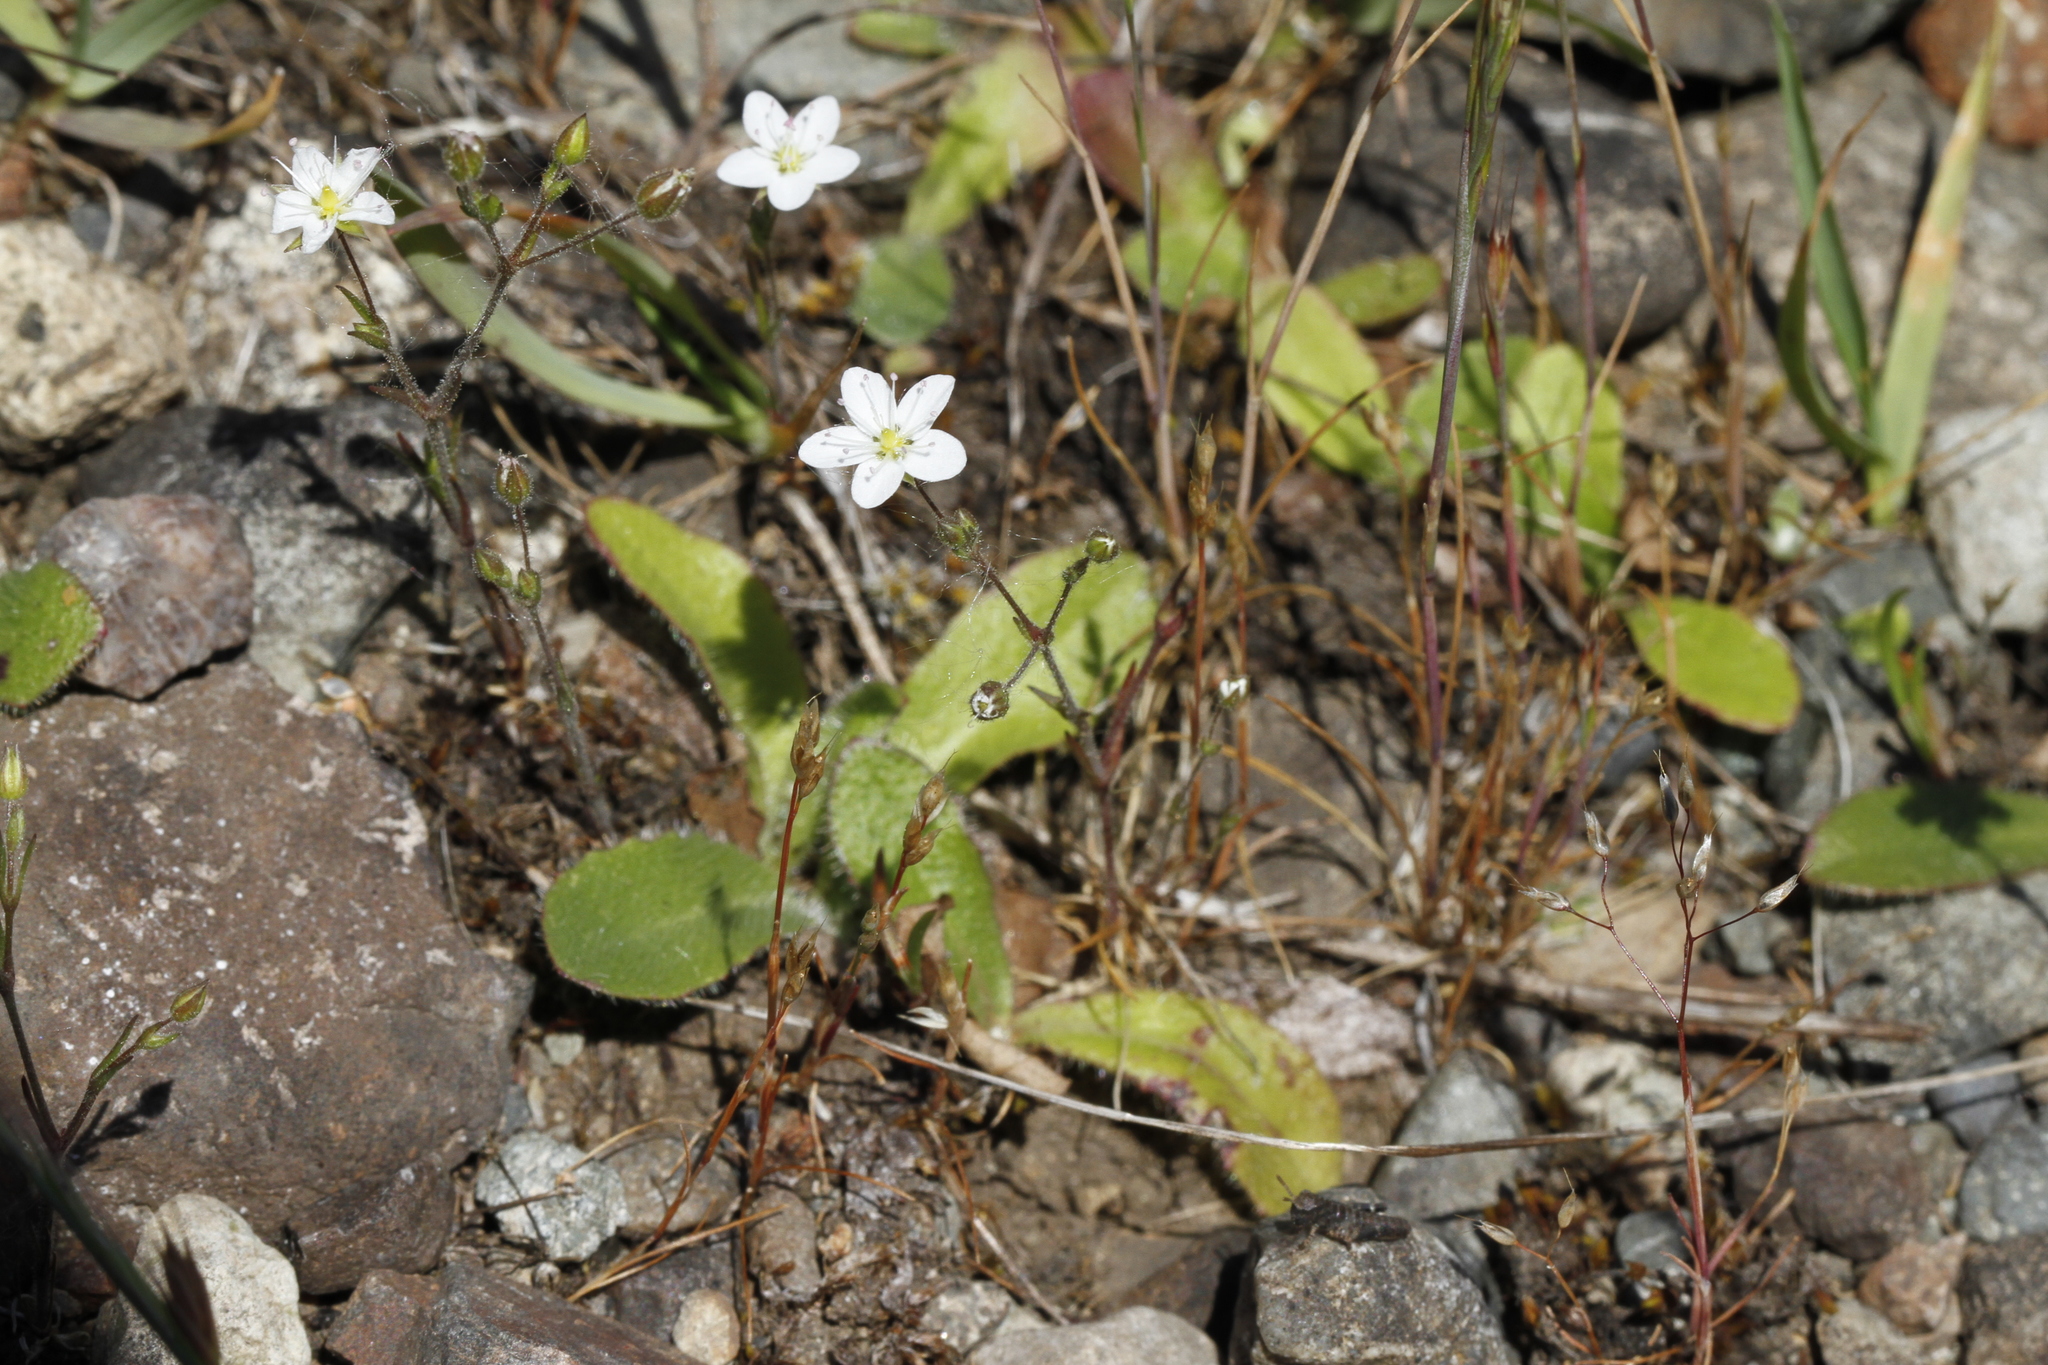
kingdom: Plantae
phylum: Tracheophyta
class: Magnoliopsida
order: Caryophyllales
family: Caryophyllaceae
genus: Sabulina
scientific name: Sabulina macra
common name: Slender sandwort
